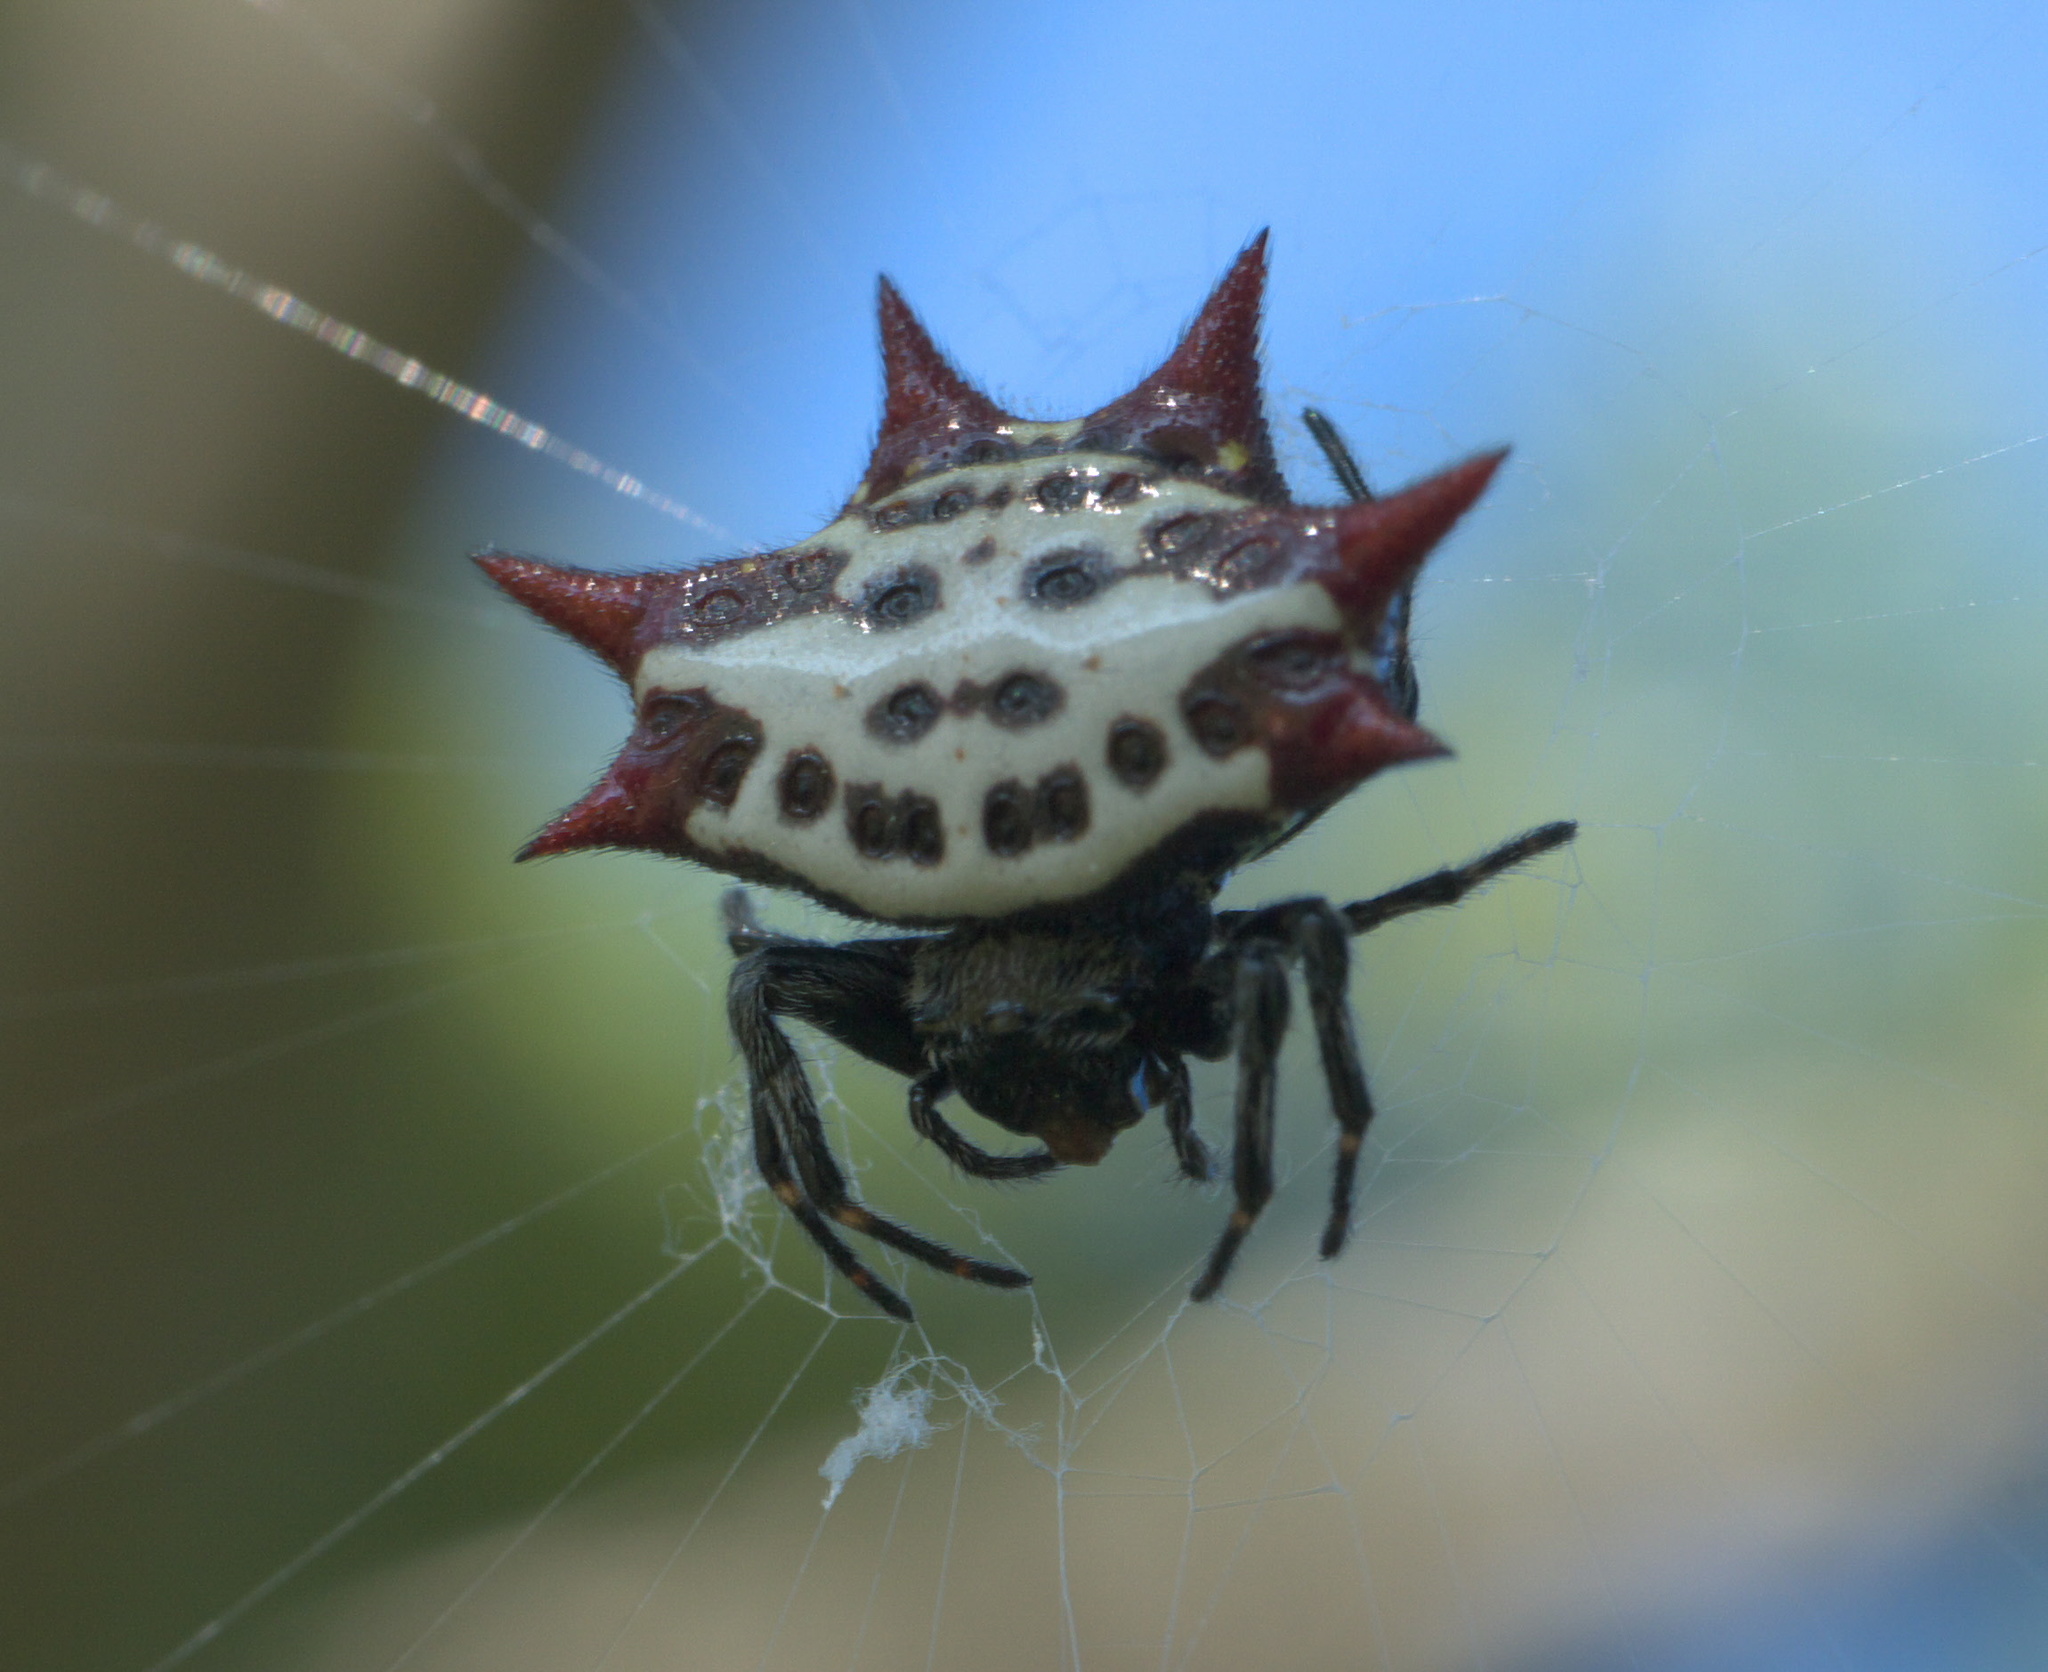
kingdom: Animalia
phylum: Arthropoda
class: Arachnida
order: Araneae
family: Araneidae
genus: Gasteracantha
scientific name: Gasteracantha cancriformis
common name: Orb weavers
